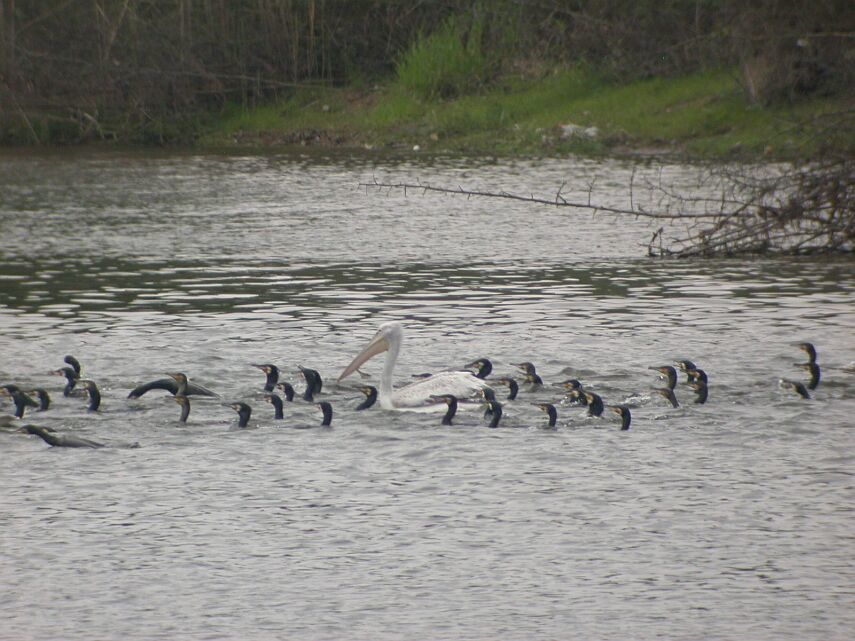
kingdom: Animalia
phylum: Chordata
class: Aves
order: Pelecaniformes
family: Pelecanidae
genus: Pelecanus
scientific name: Pelecanus crispus
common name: Dalmatian pelican
